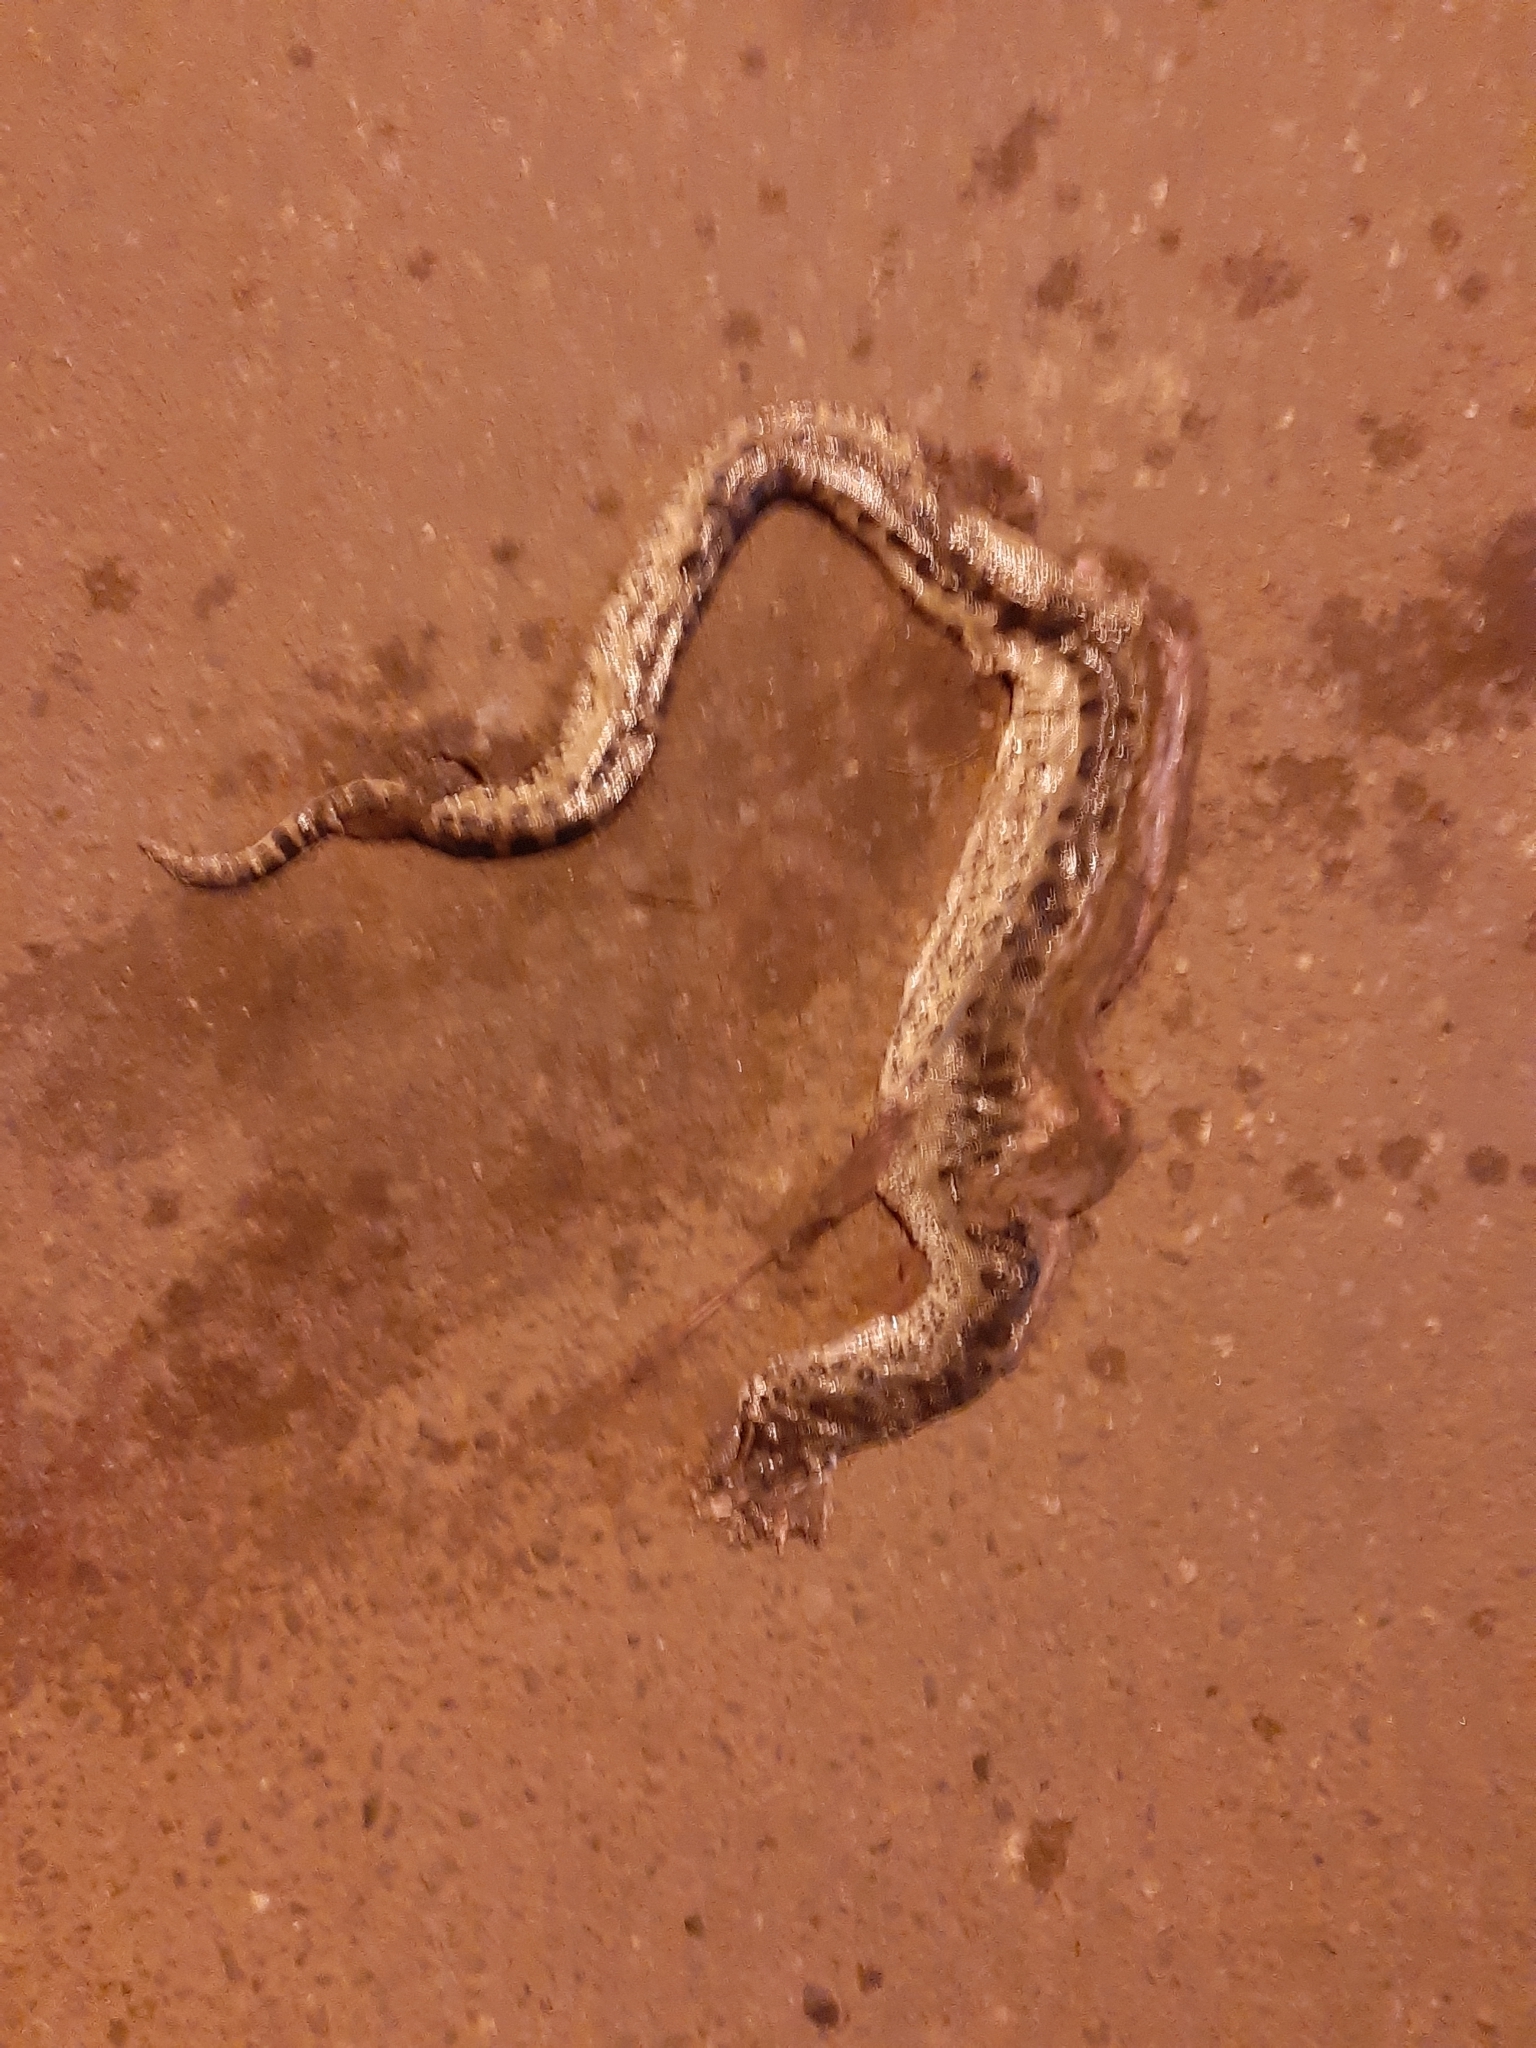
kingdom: Animalia
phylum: Chordata
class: Squamata
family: Boidae
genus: Eunectes
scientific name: Eunectes murinus
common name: Anaconda
